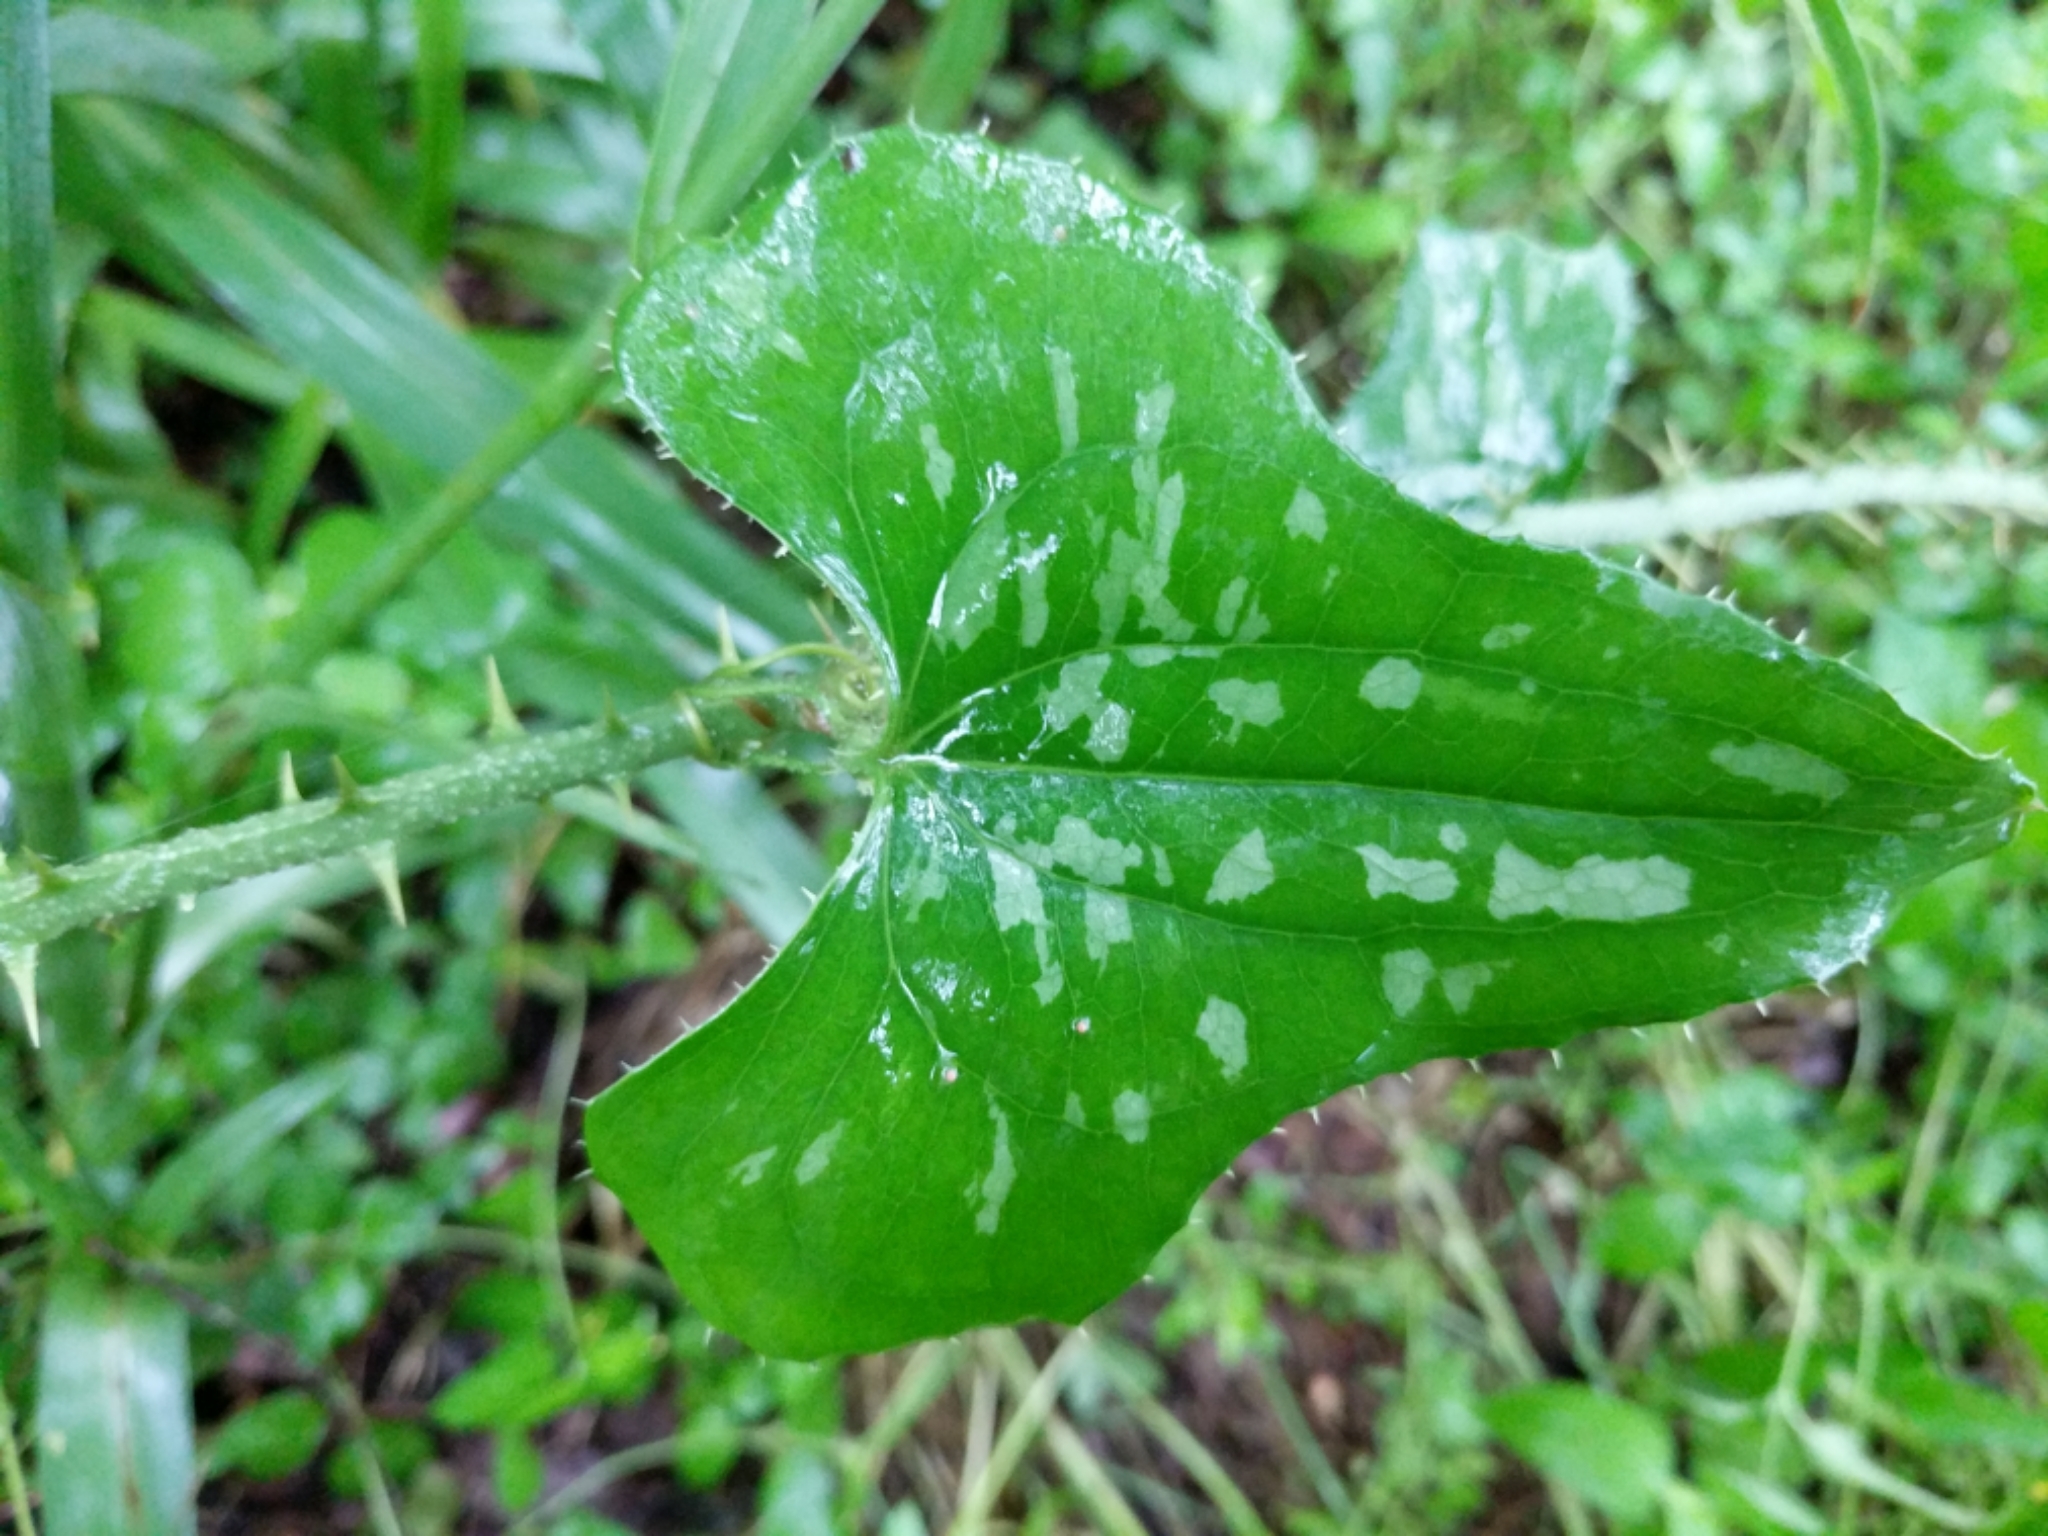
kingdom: Plantae
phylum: Tracheophyta
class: Liliopsida
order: Liliales
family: Smilacaceae
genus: Smilax
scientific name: Smilax bona-nox
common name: Catbrier
